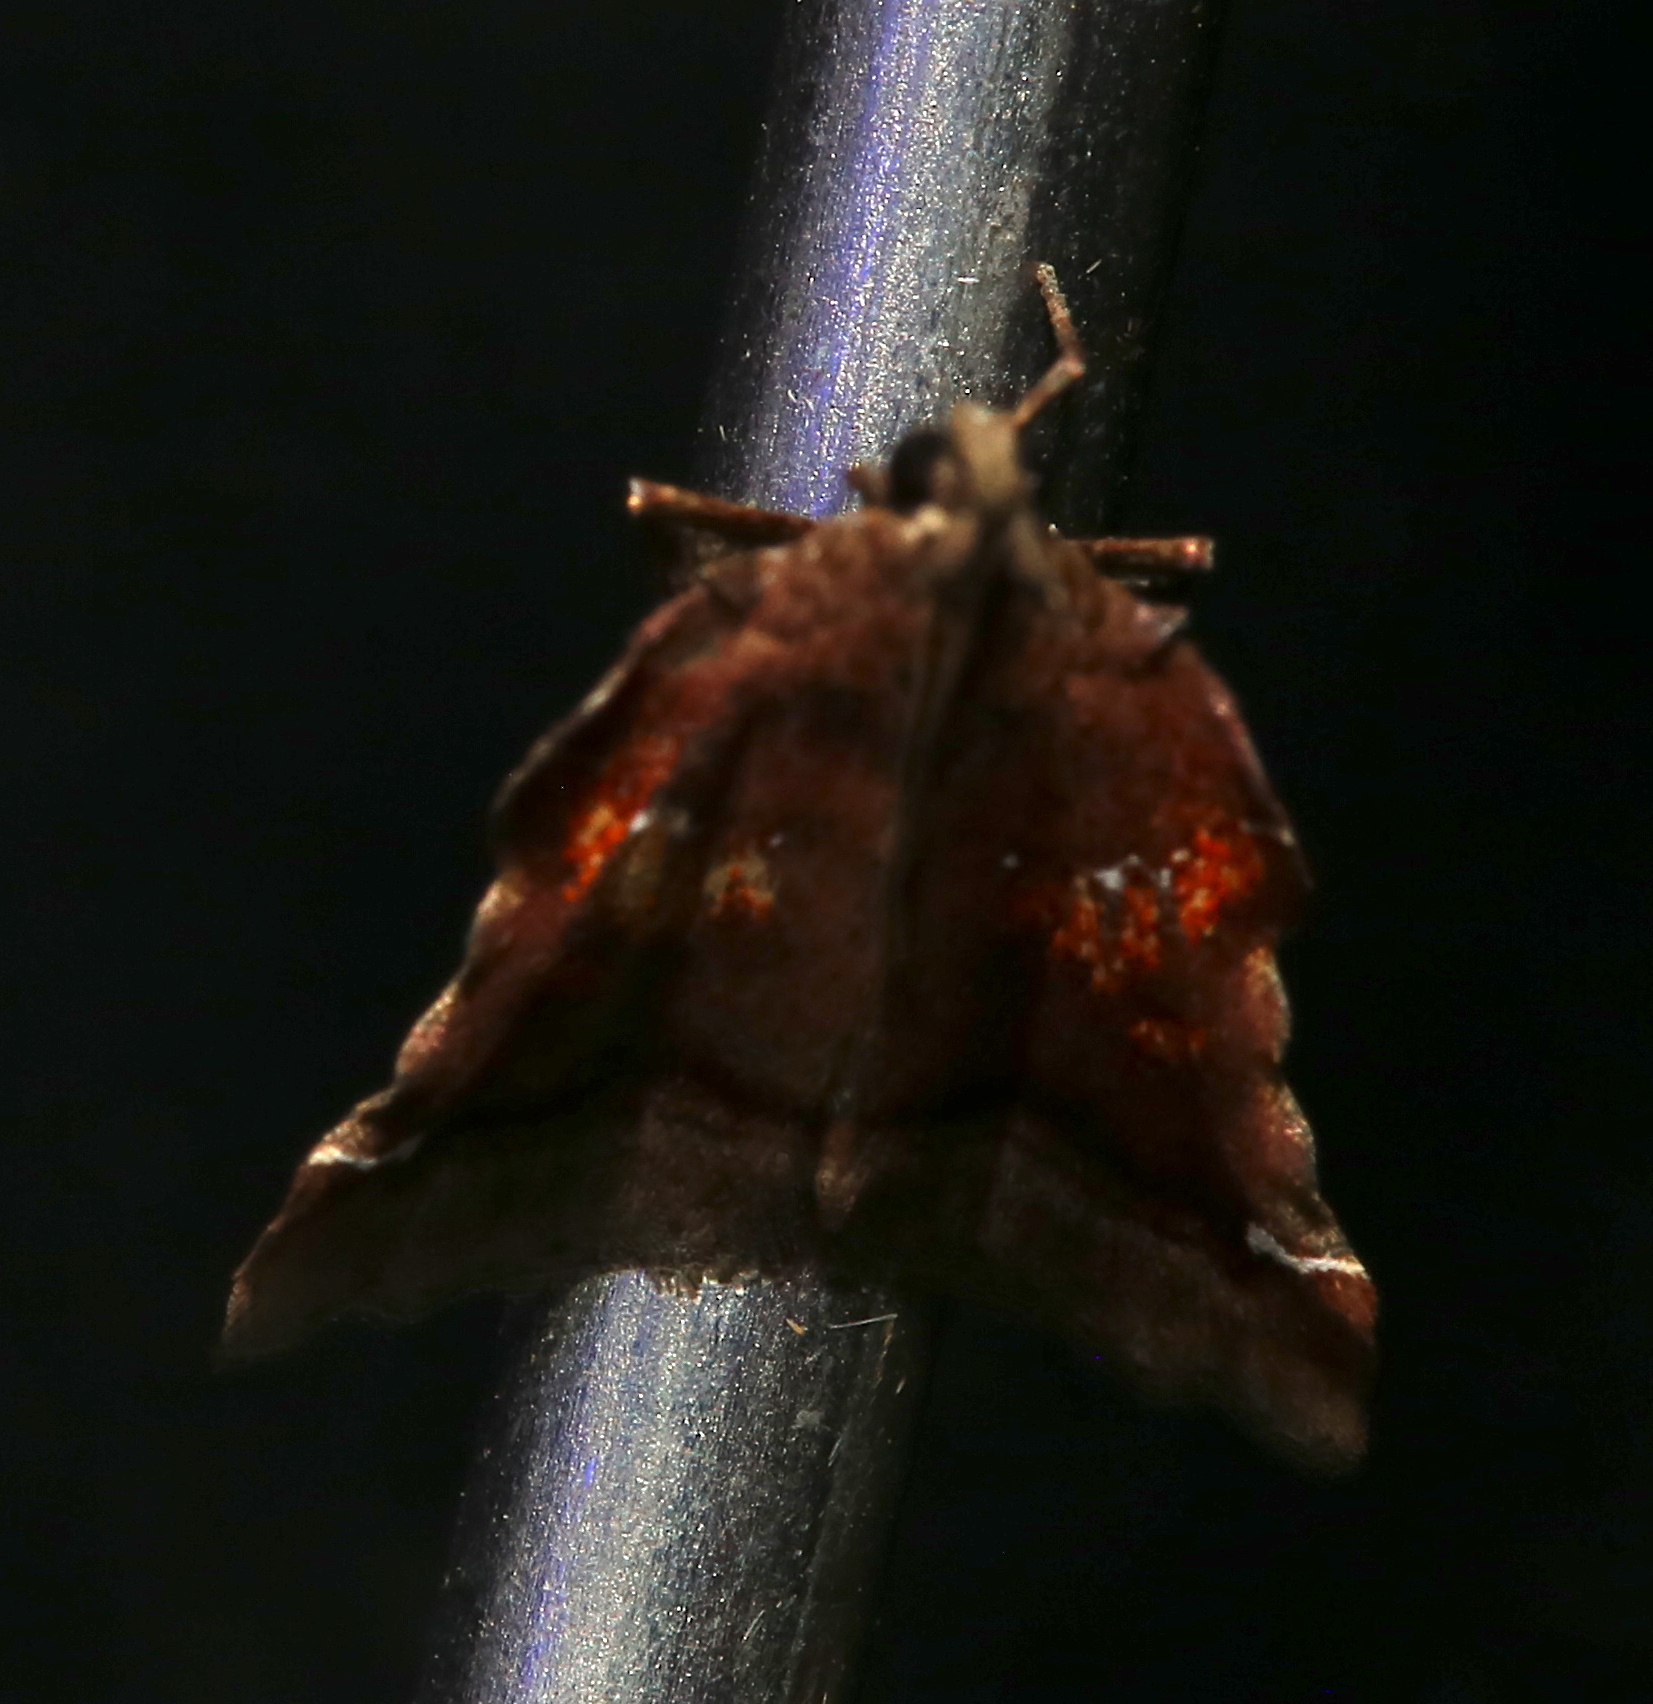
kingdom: Animalia
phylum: Arthropoda
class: Insecta
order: Lepidoptera
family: Pyralidae
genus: Clydonopteron
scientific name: Clydonopteron sacculana
